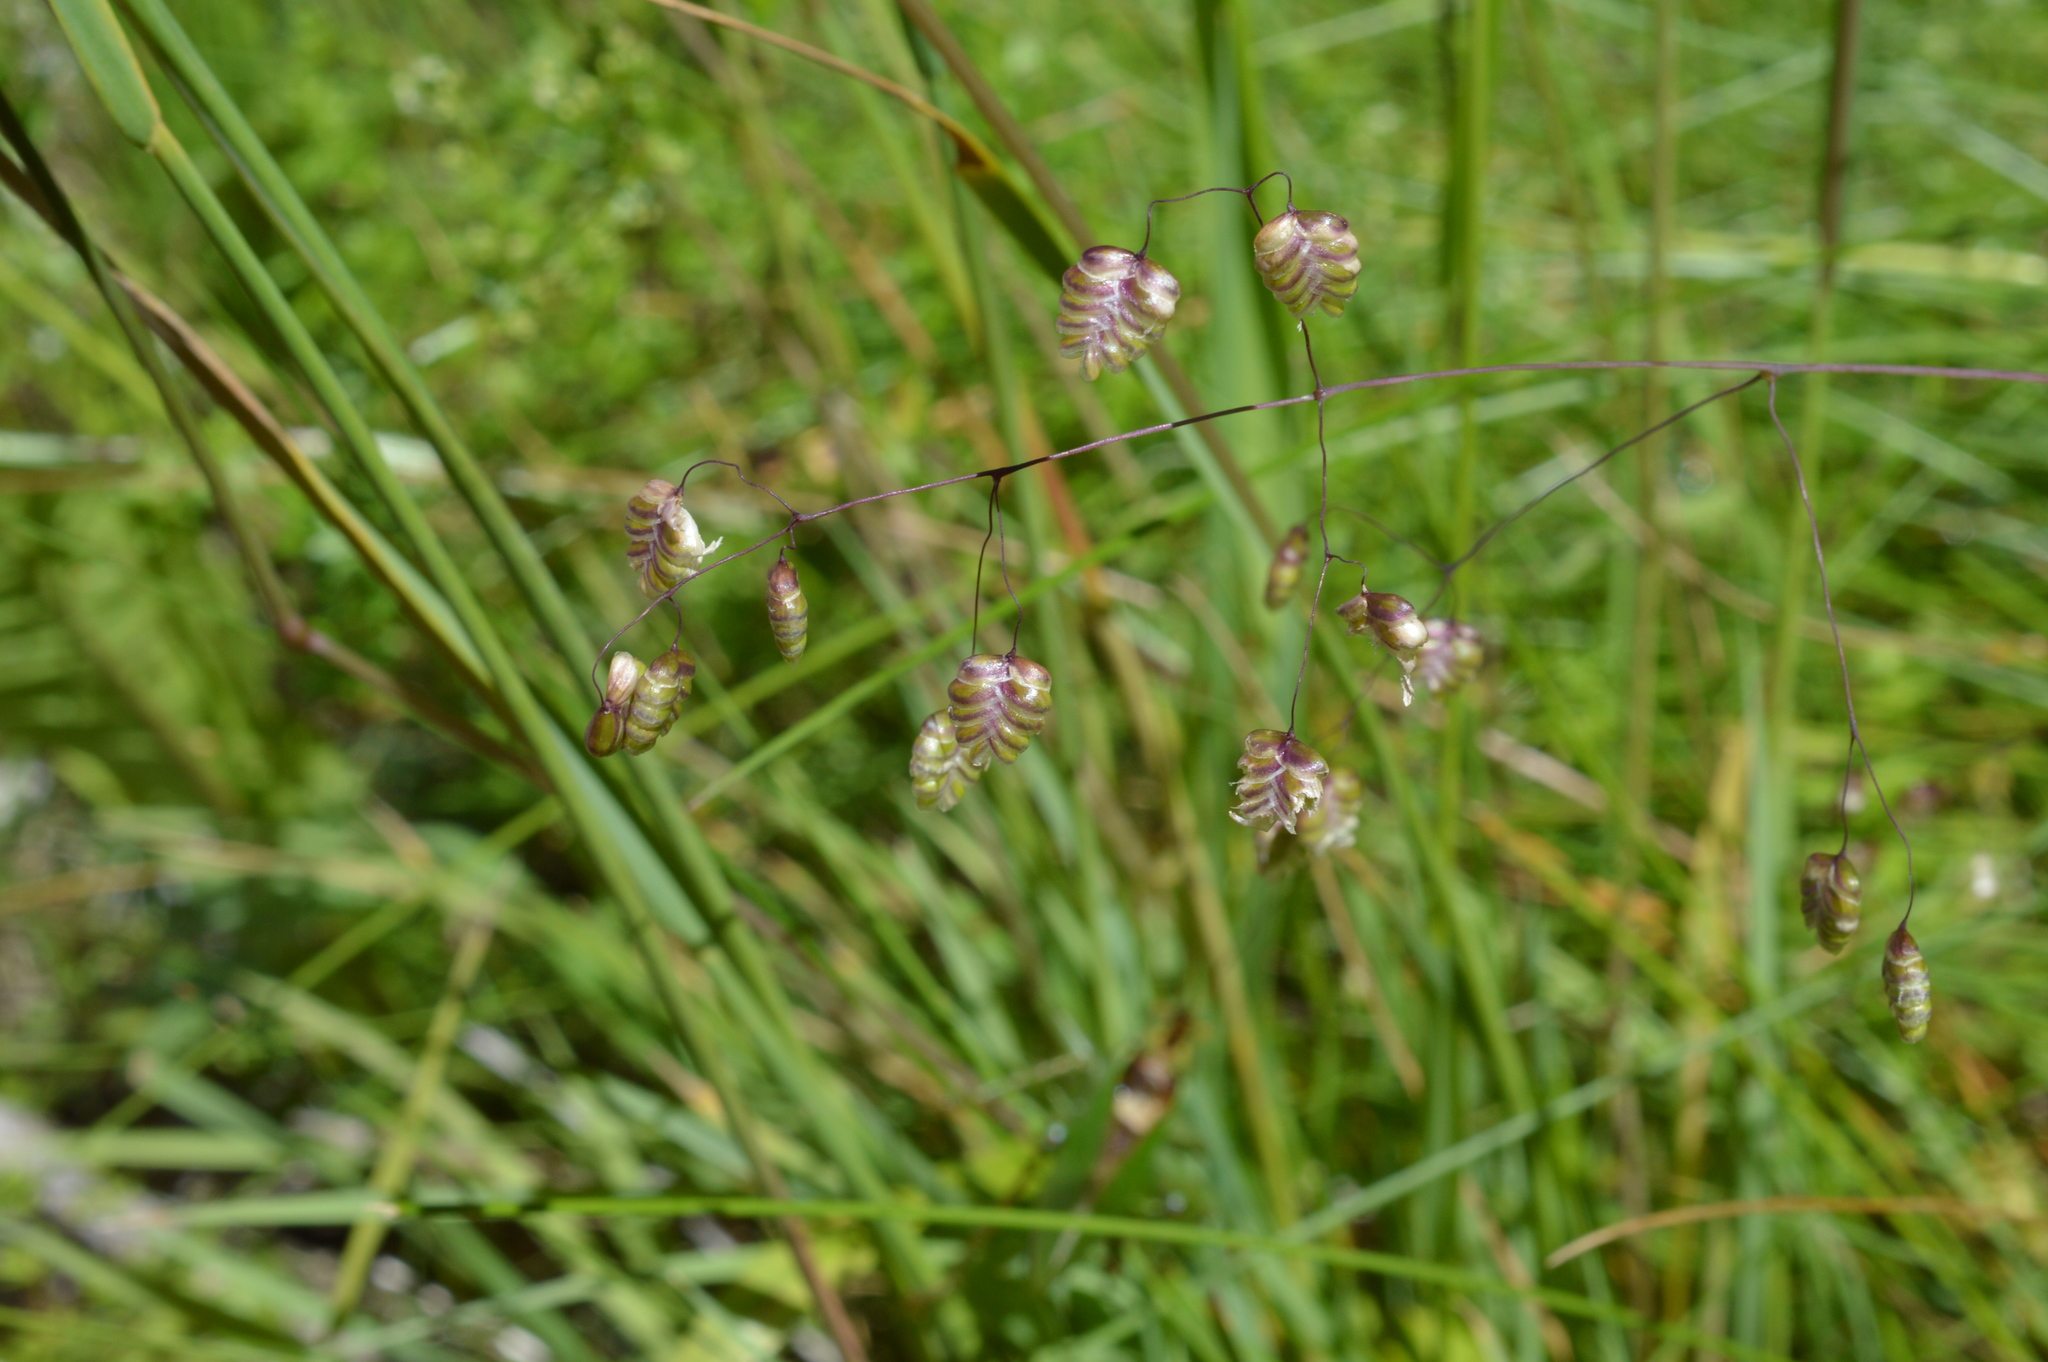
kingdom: Plantae
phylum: Tracheophyta
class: Liliopsida
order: Poales
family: Poaceae
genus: Briza
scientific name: Briza media
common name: Quaking grass
